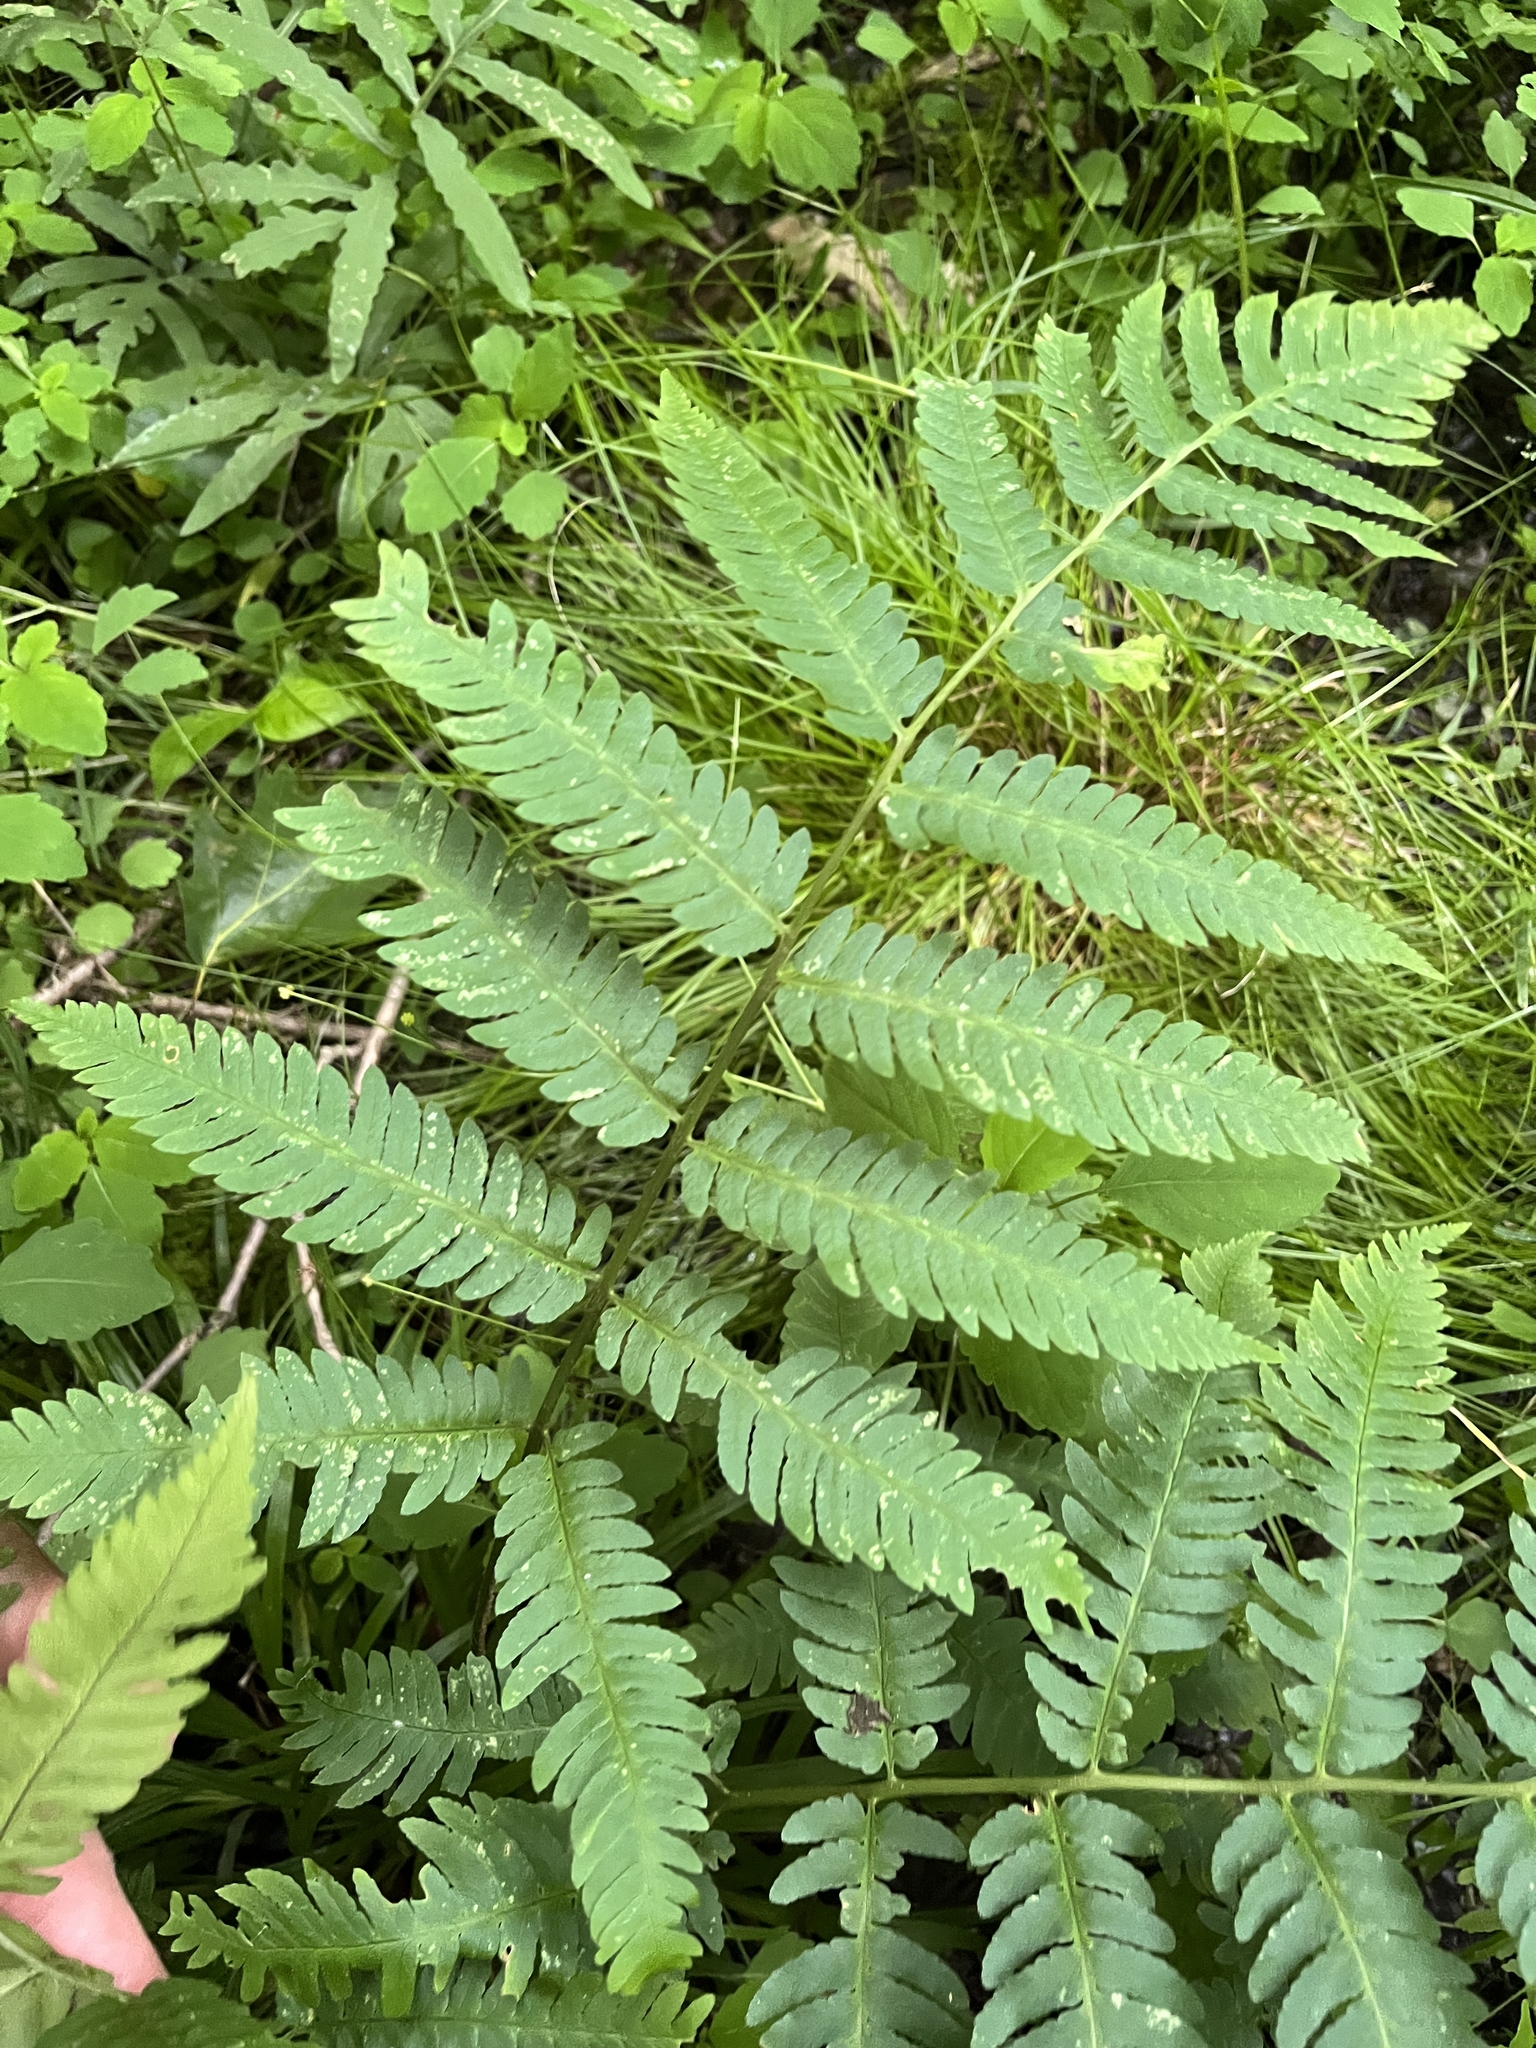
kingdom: Plantae
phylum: Tracheophyta
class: Polypodiopsida
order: Polypodiales
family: Dryopteridaceae
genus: Dryopteris
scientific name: Dryopteris goldieana
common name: Goldie's fern
